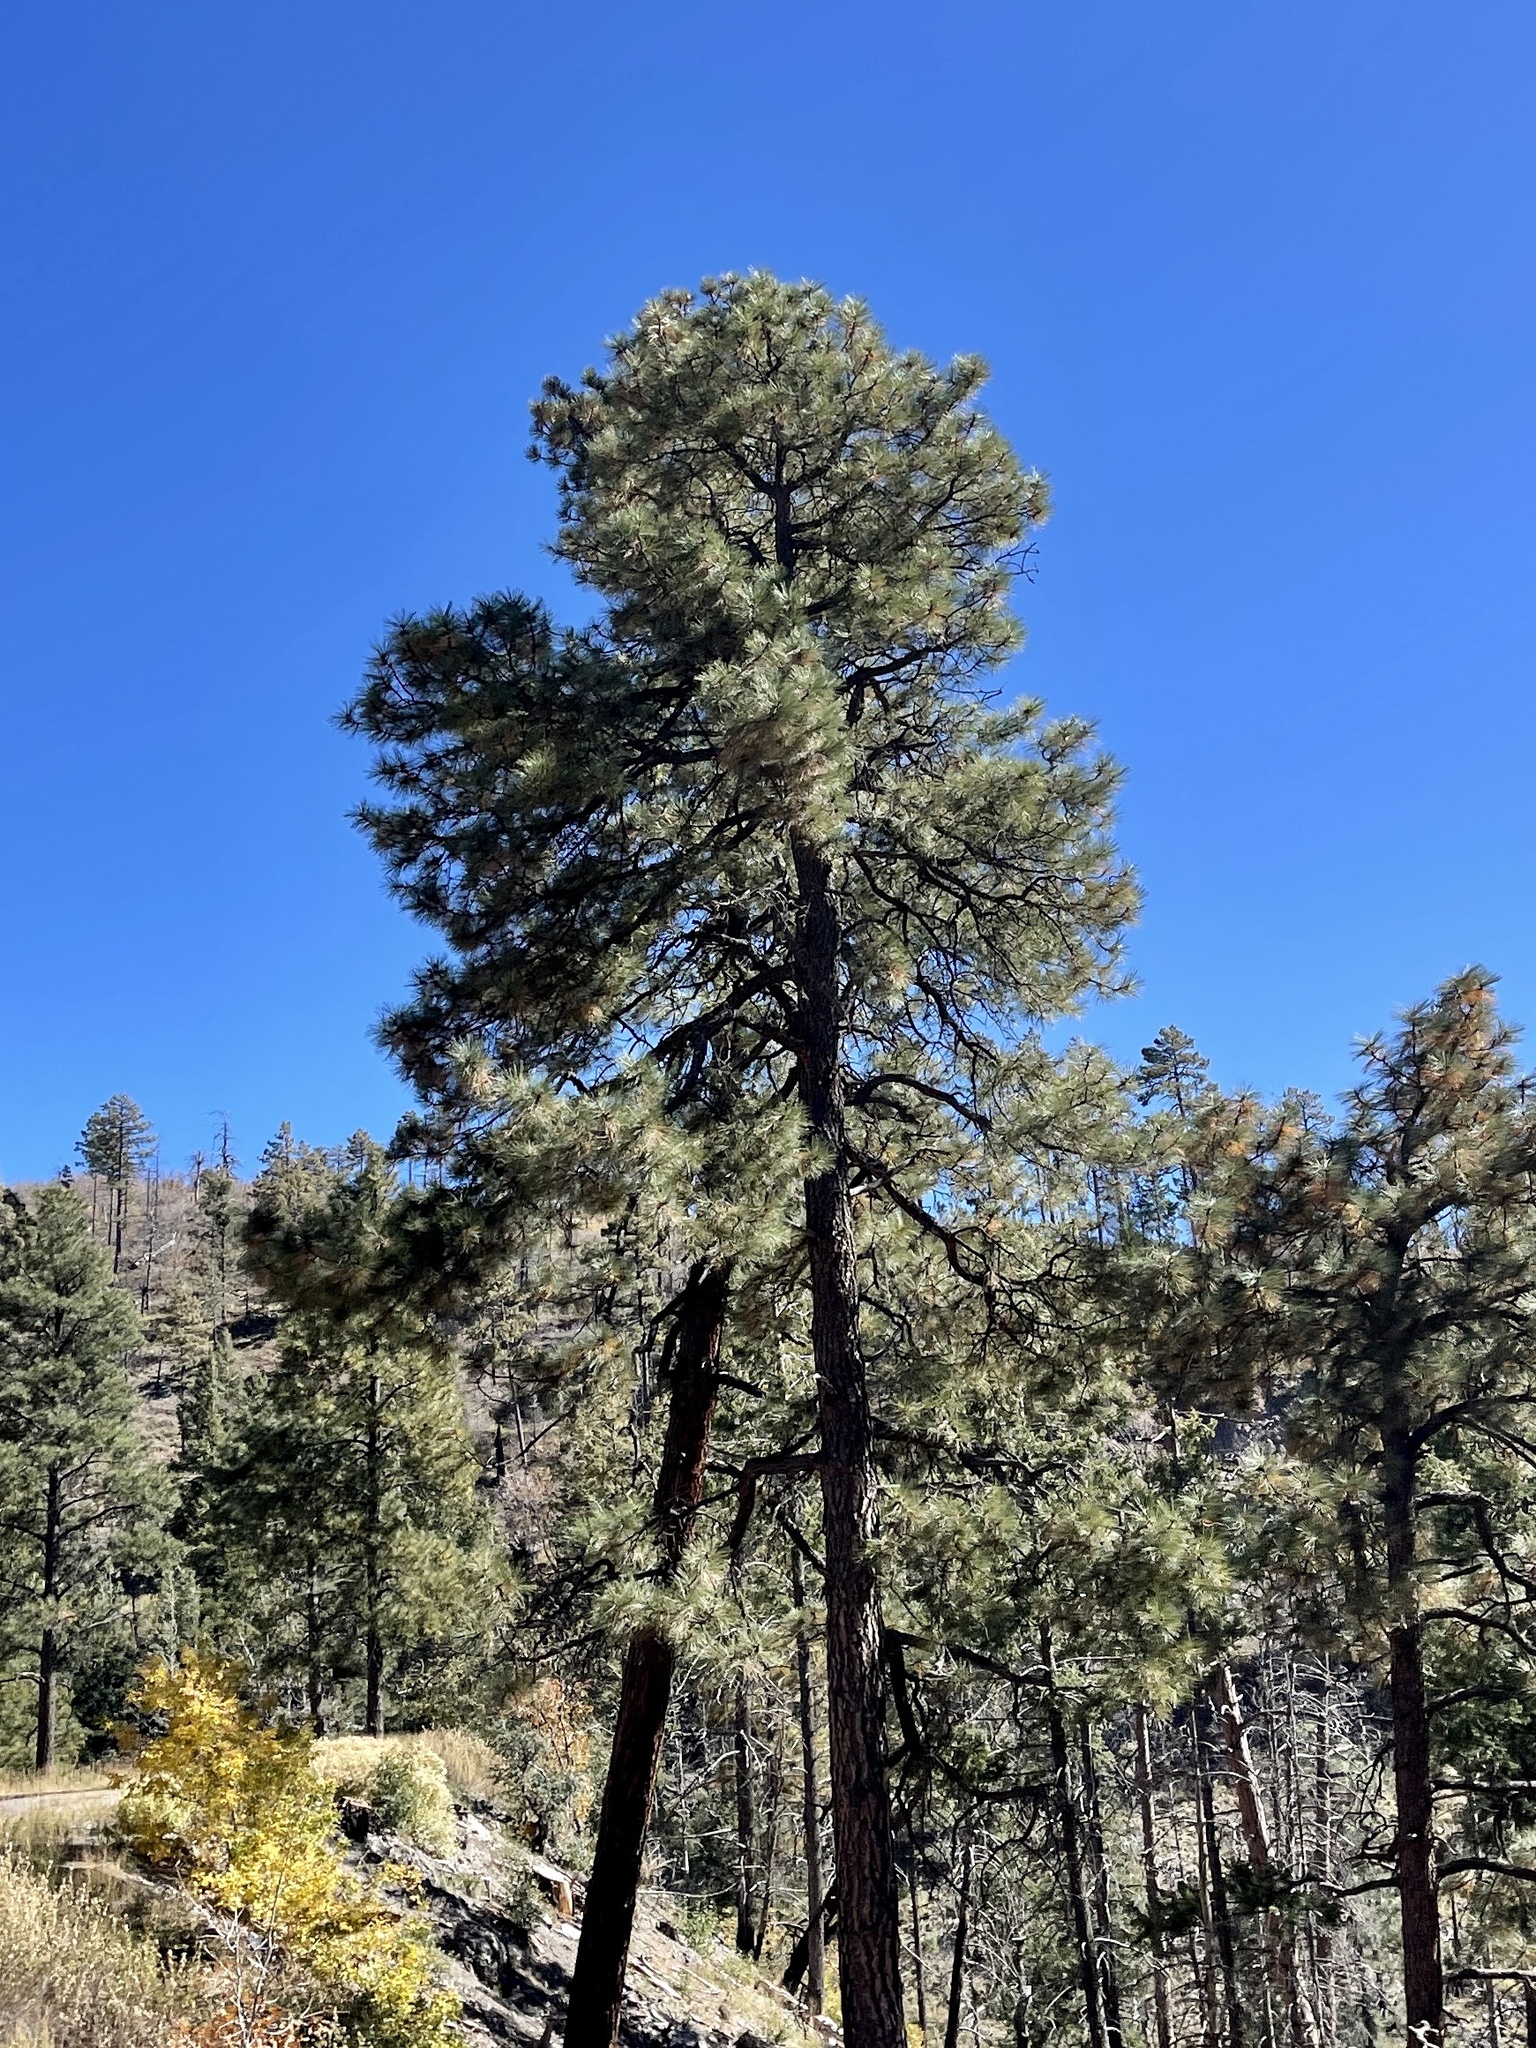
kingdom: Plantae
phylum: Tracheophyta
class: Pinopsida
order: Pinales
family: Pinaceae
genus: Pinus
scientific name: Pinus ponderosa
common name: Western yellow-pine
